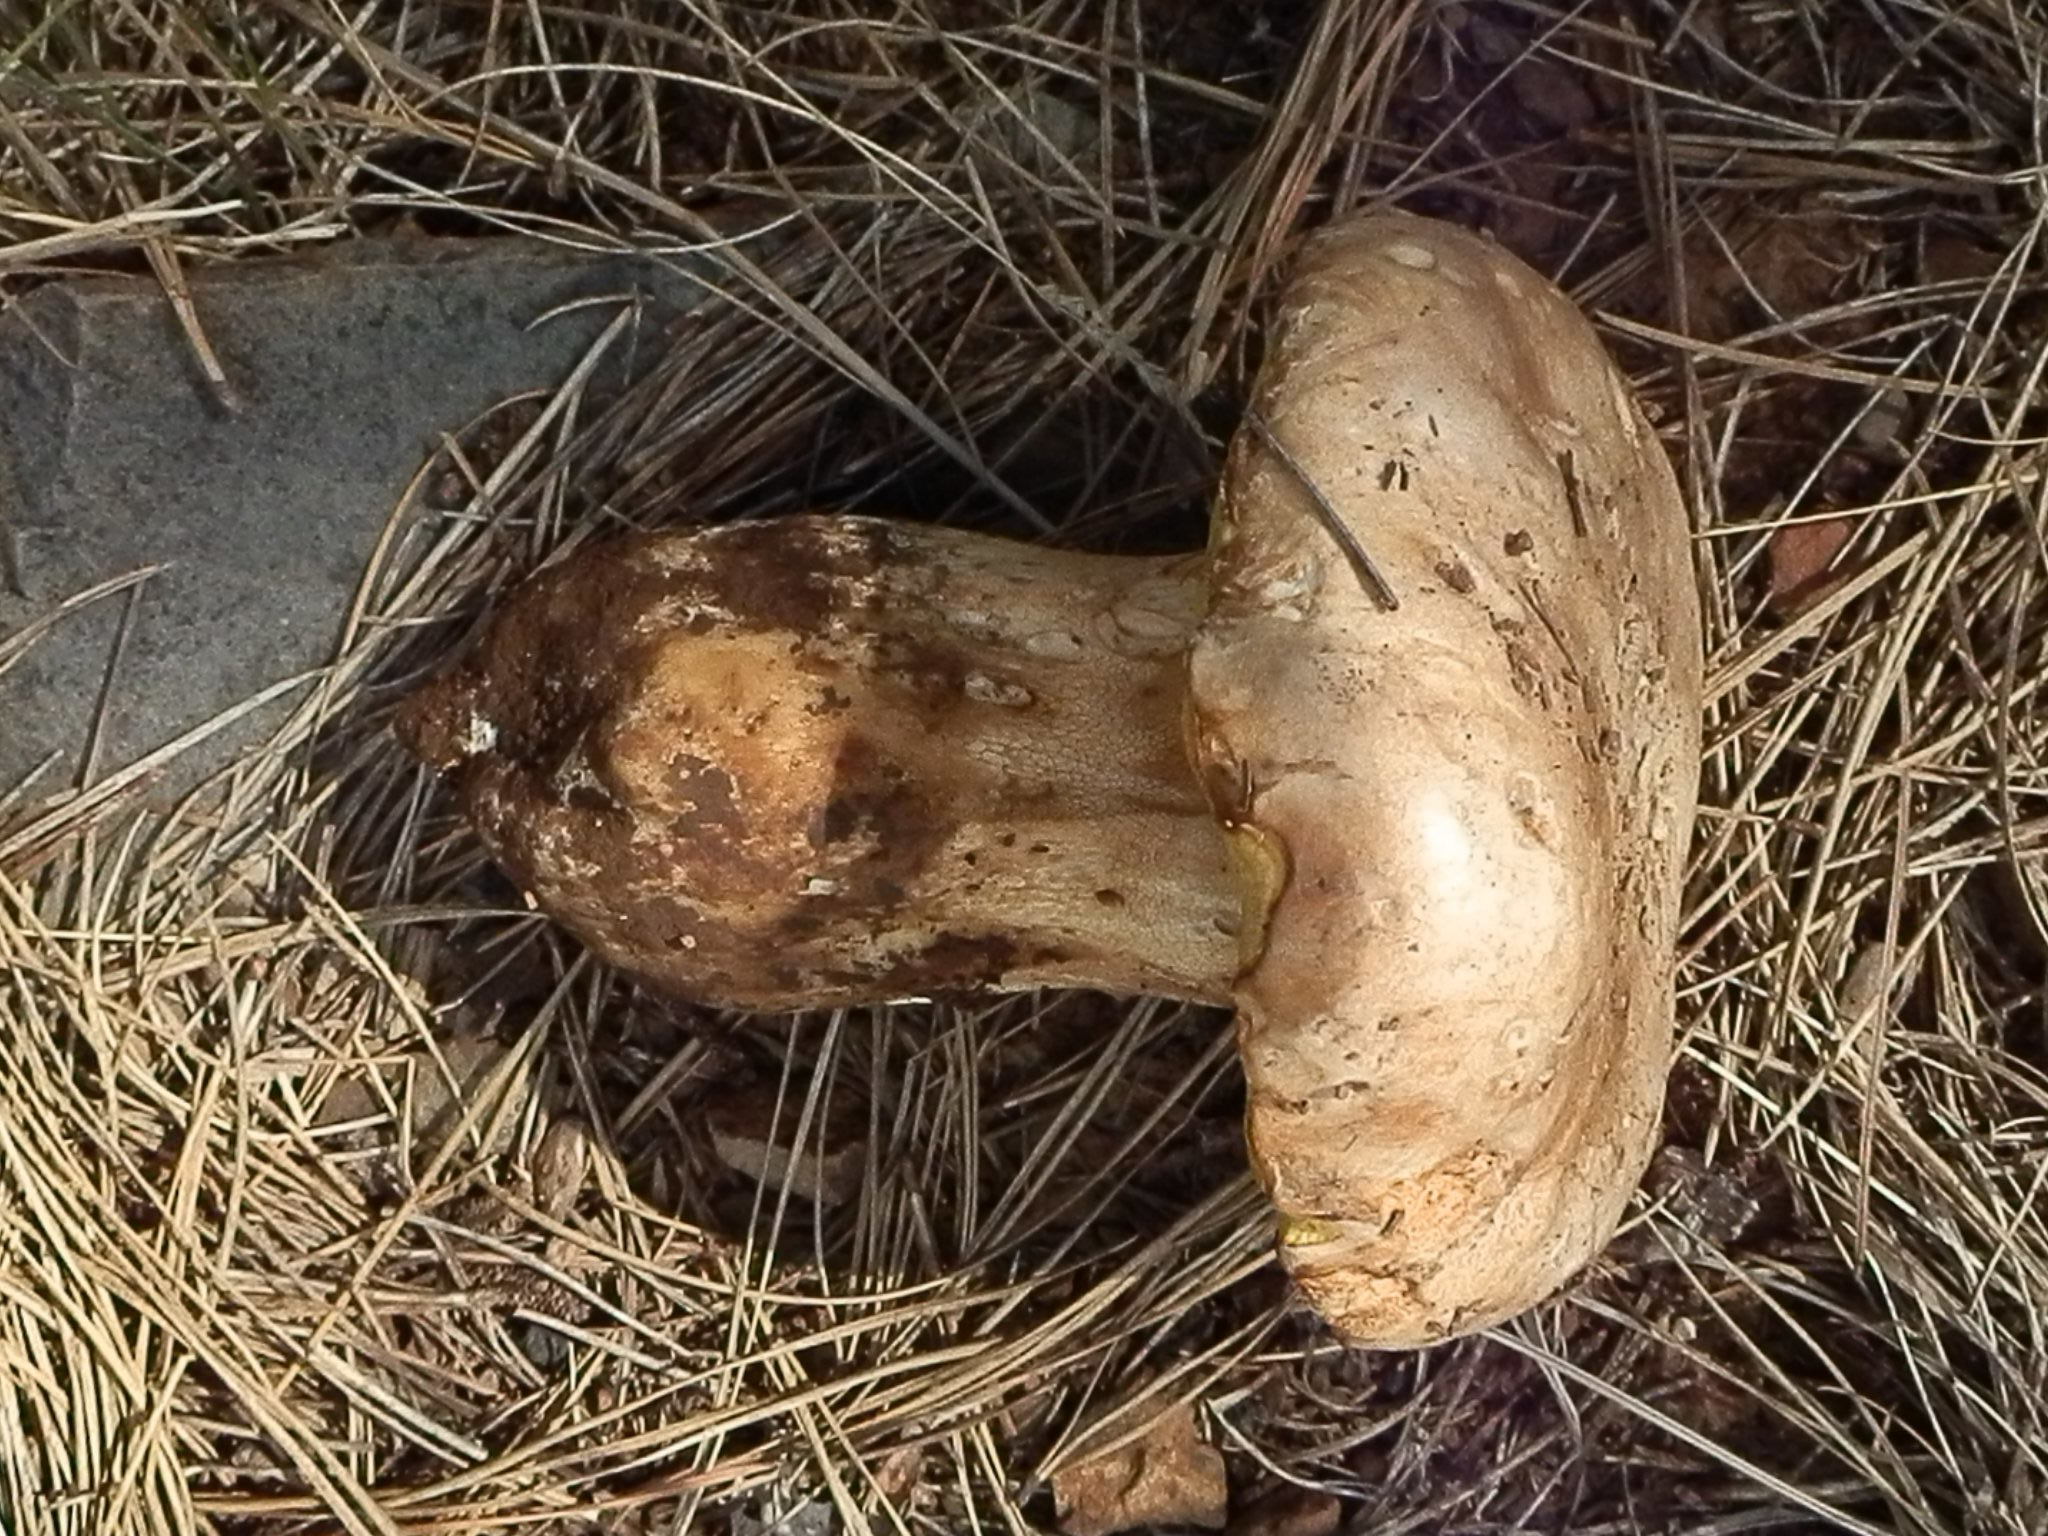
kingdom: Fungi
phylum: Basidiomycota
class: Agaricomycetes
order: Boletales
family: Boletaceae
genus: Boletus
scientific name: Boletus barrowsii
